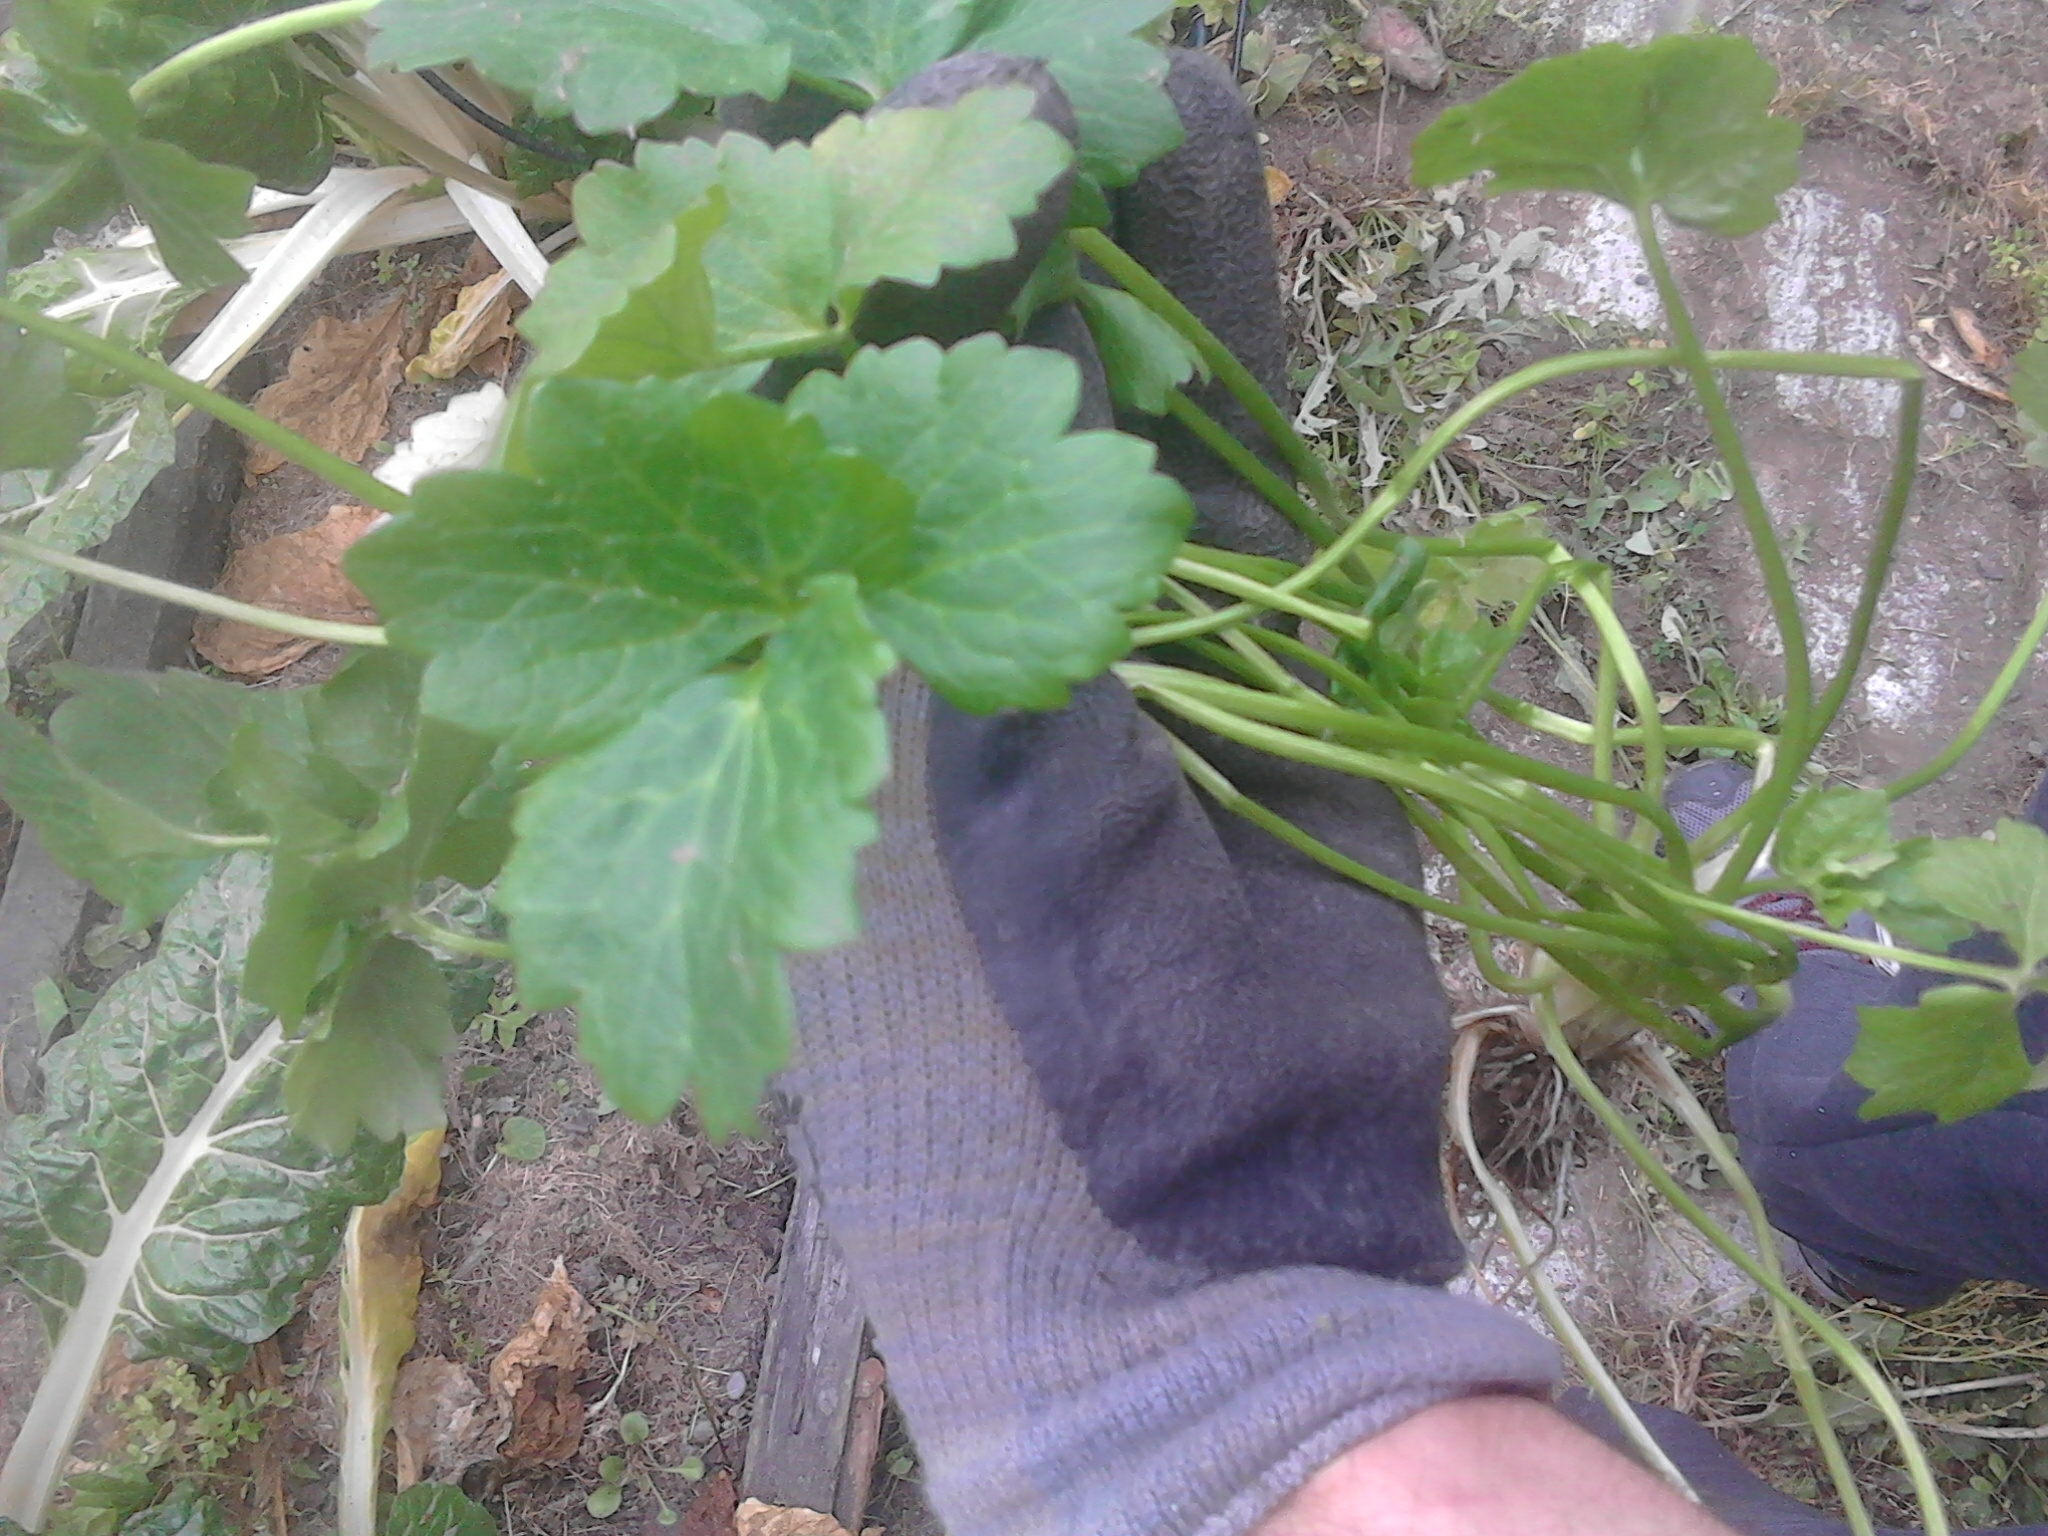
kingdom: Plantae
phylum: Tracheophyta
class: Magnoliopsida
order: Ranunculales
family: Ranunculaceae
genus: Ranunculus
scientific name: Ranunculus repens
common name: Creeping buttercup
